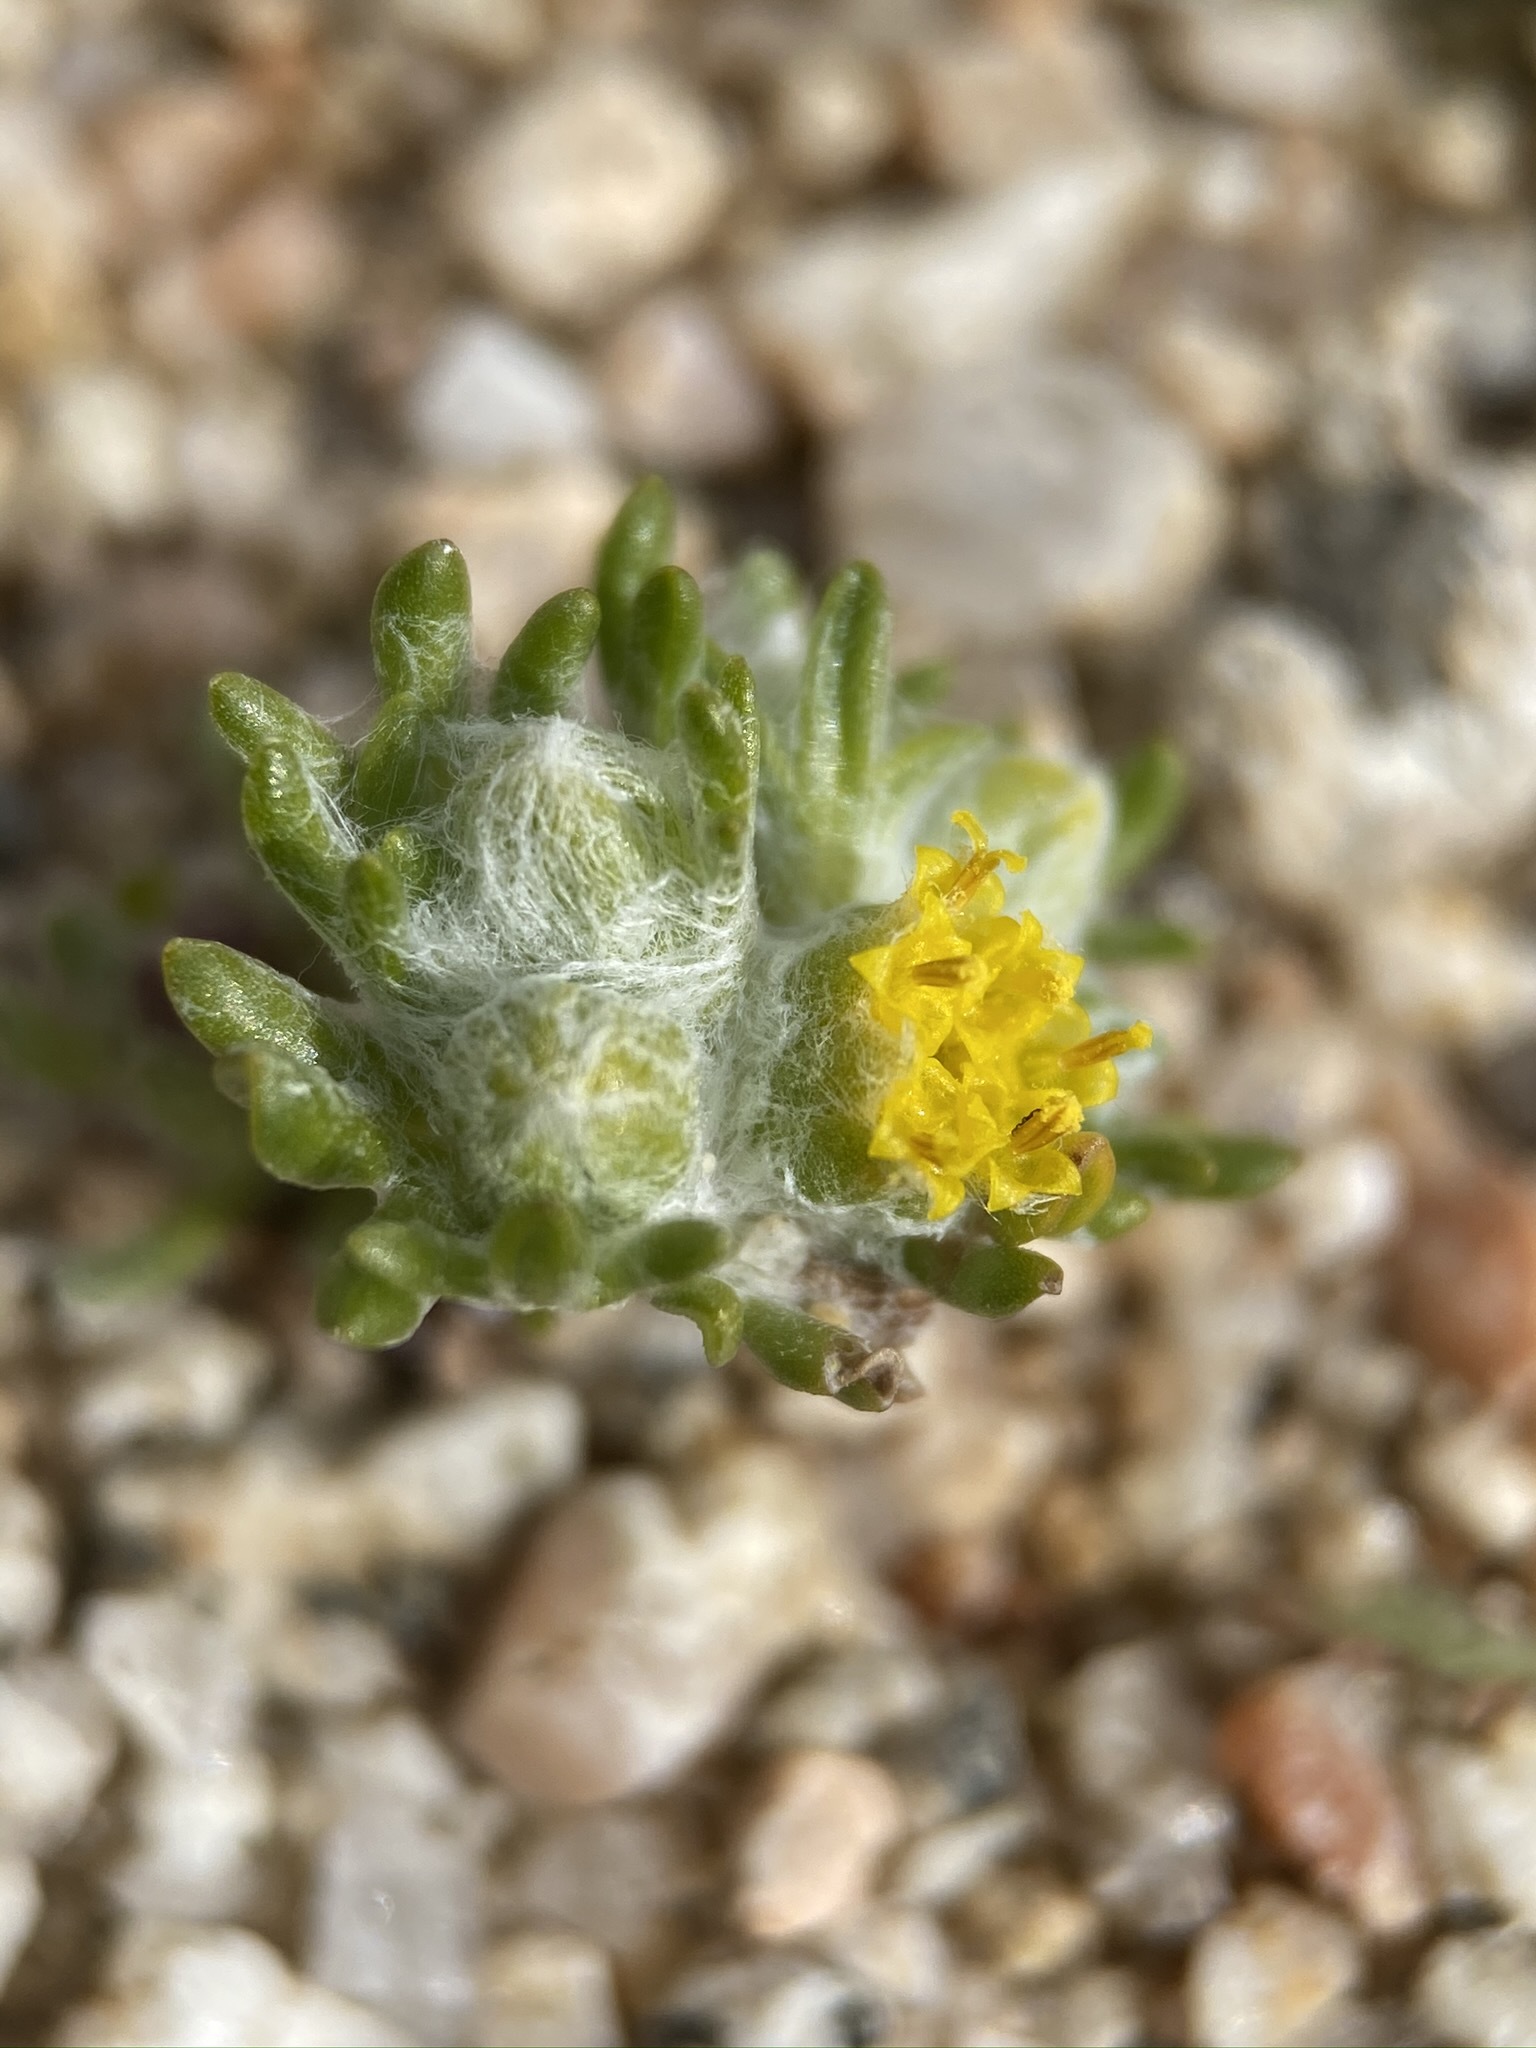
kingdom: Plantae
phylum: Tracheophyta
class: Magnoliopsida
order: Asterales
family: Asteraceae
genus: Eriophyllum
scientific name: Eriophyllum pringlei
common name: Pringle's woolly-sunflower
